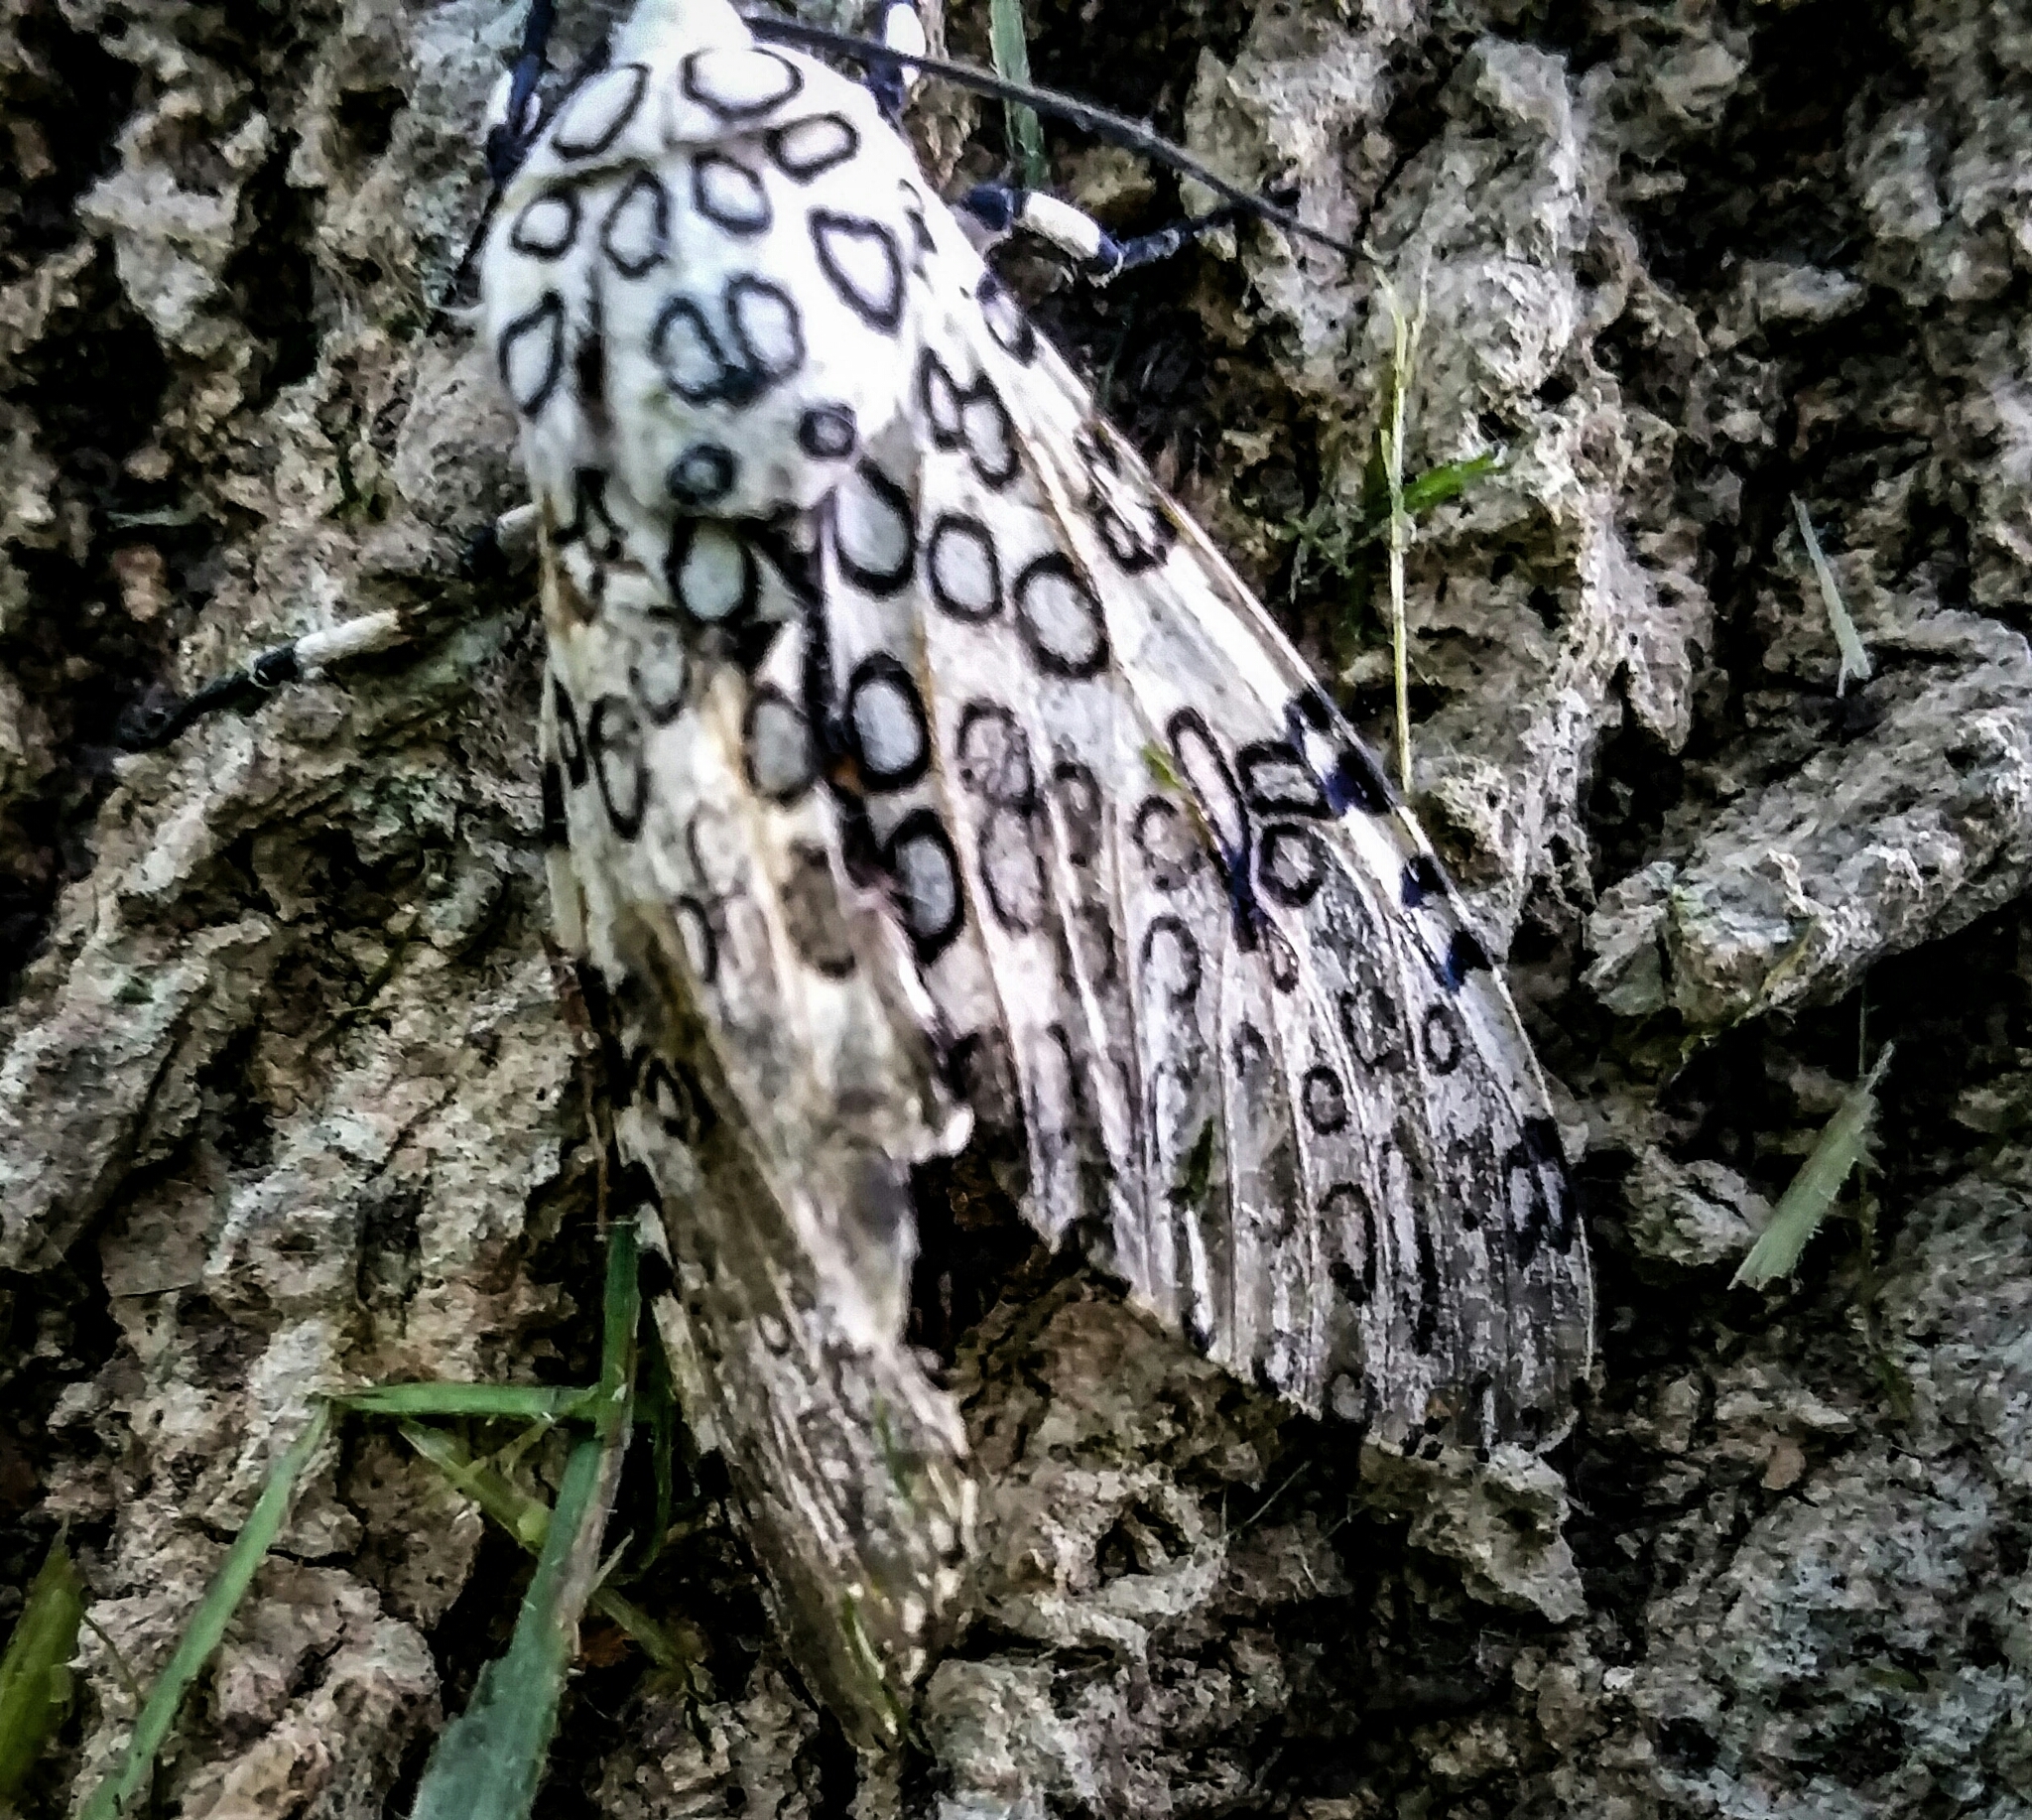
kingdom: Animalia
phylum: Arthropoda
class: Insecta
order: Lepidoptera
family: Erebidae
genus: Hypercompe
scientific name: Hypercompe scribonia
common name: Giant leopard moth
